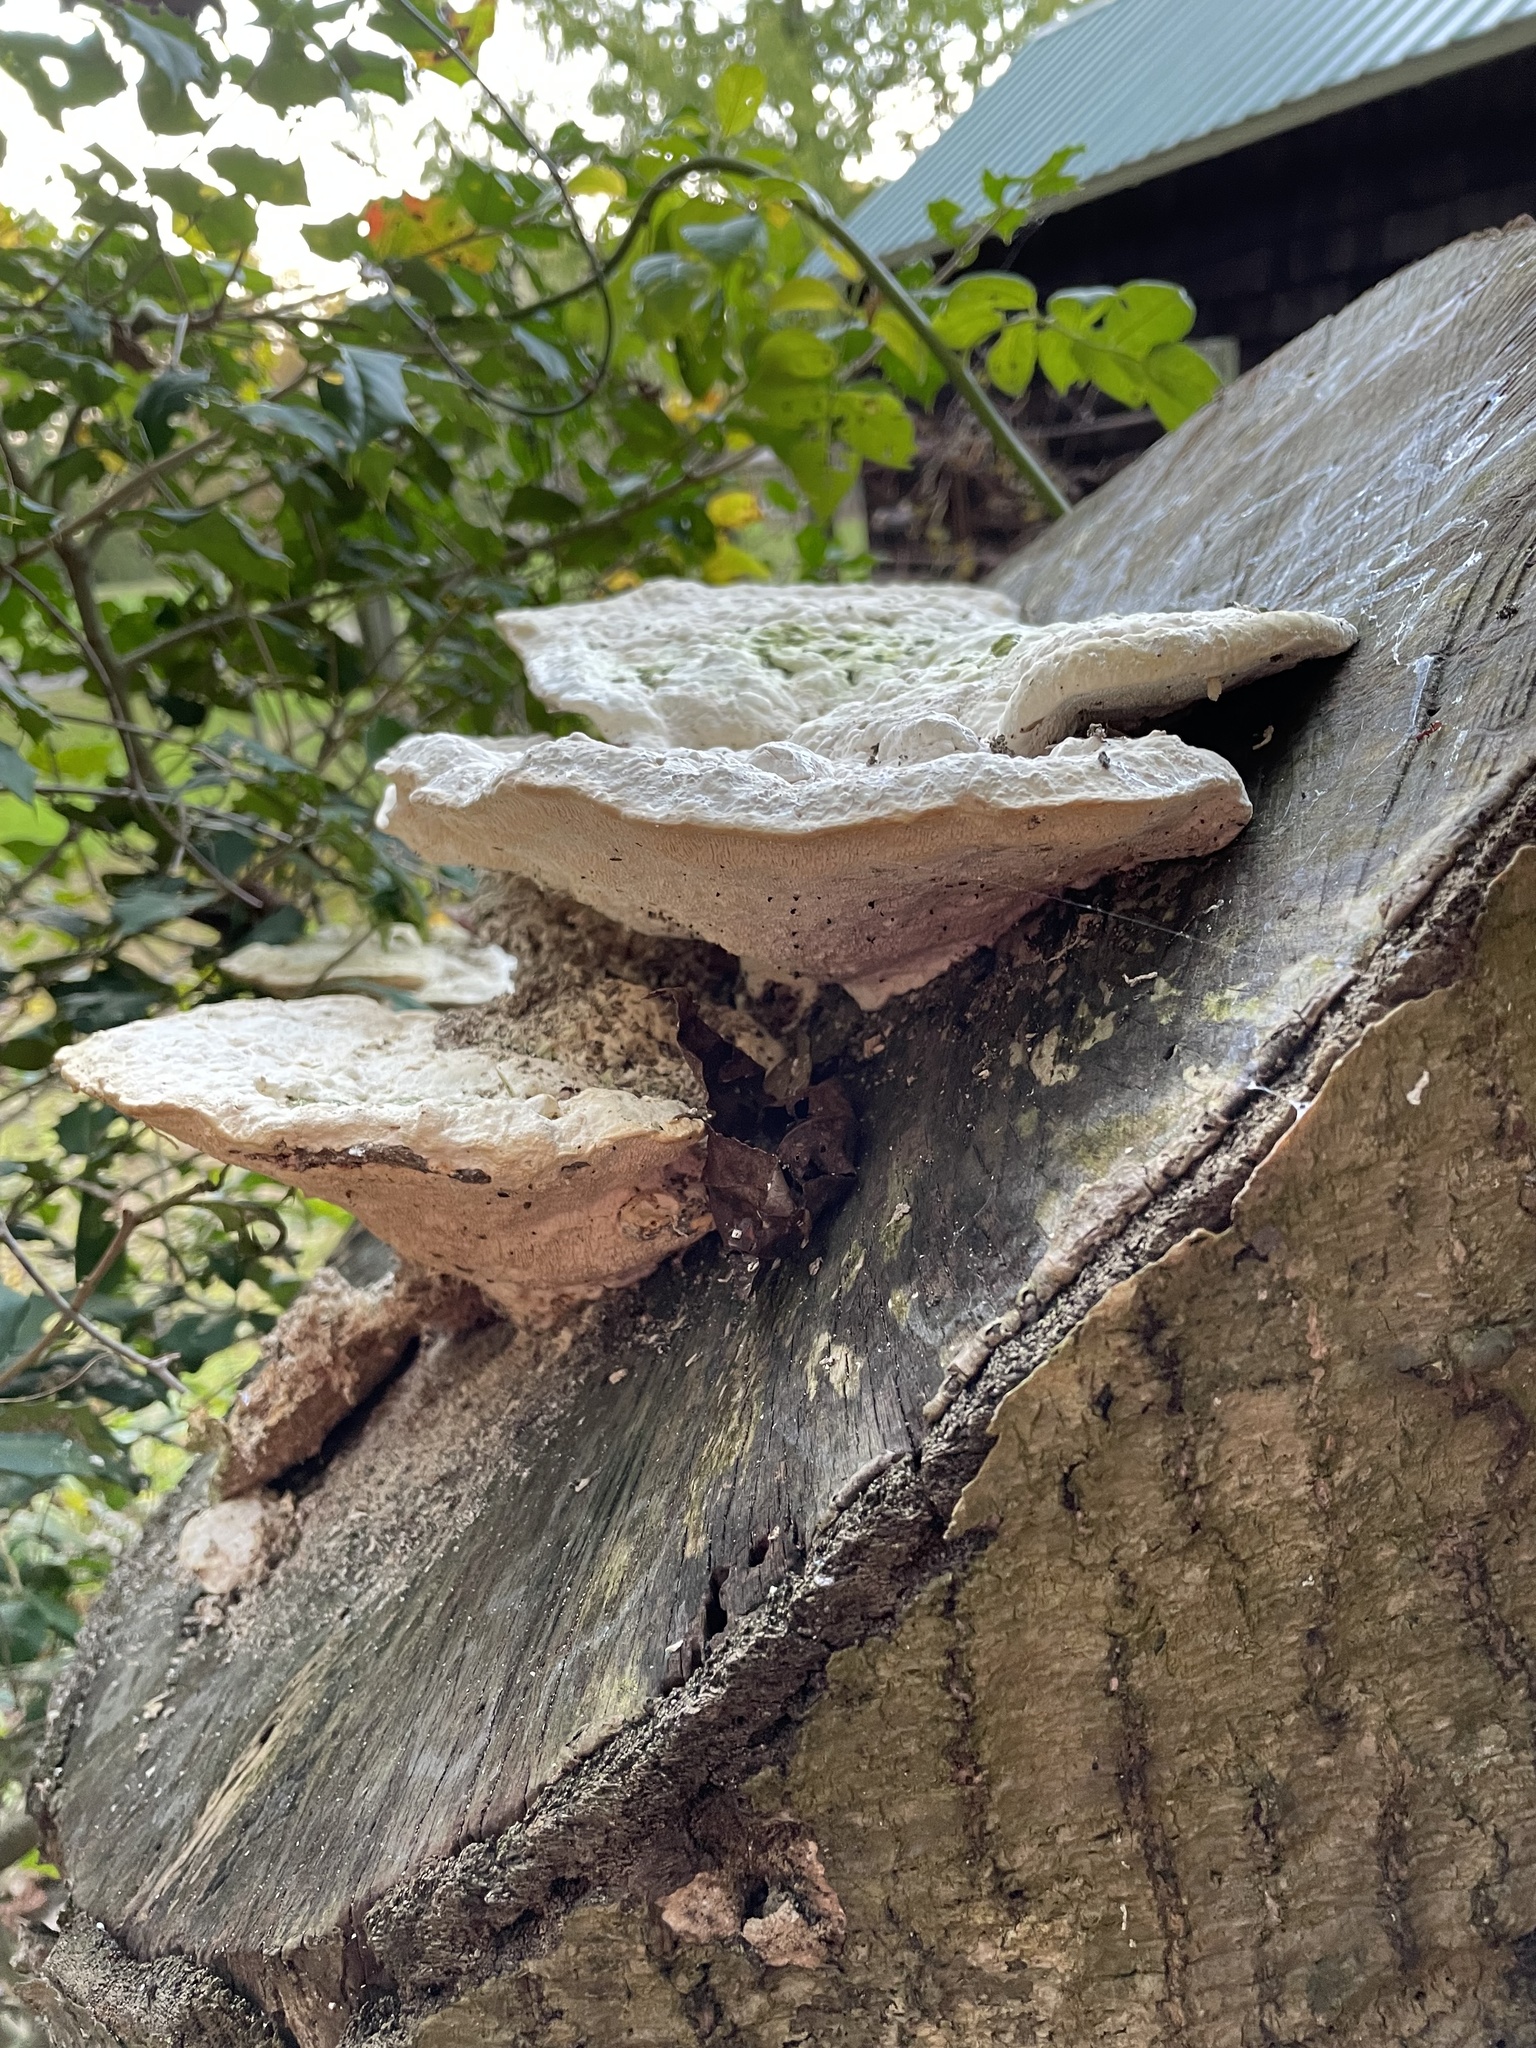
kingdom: Fungi
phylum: Basidiomycota
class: Agaricomycetes
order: Polyporales
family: Polyporaceae
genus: Trametes
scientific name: Trametes gibbosa
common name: Lumpy bracket
